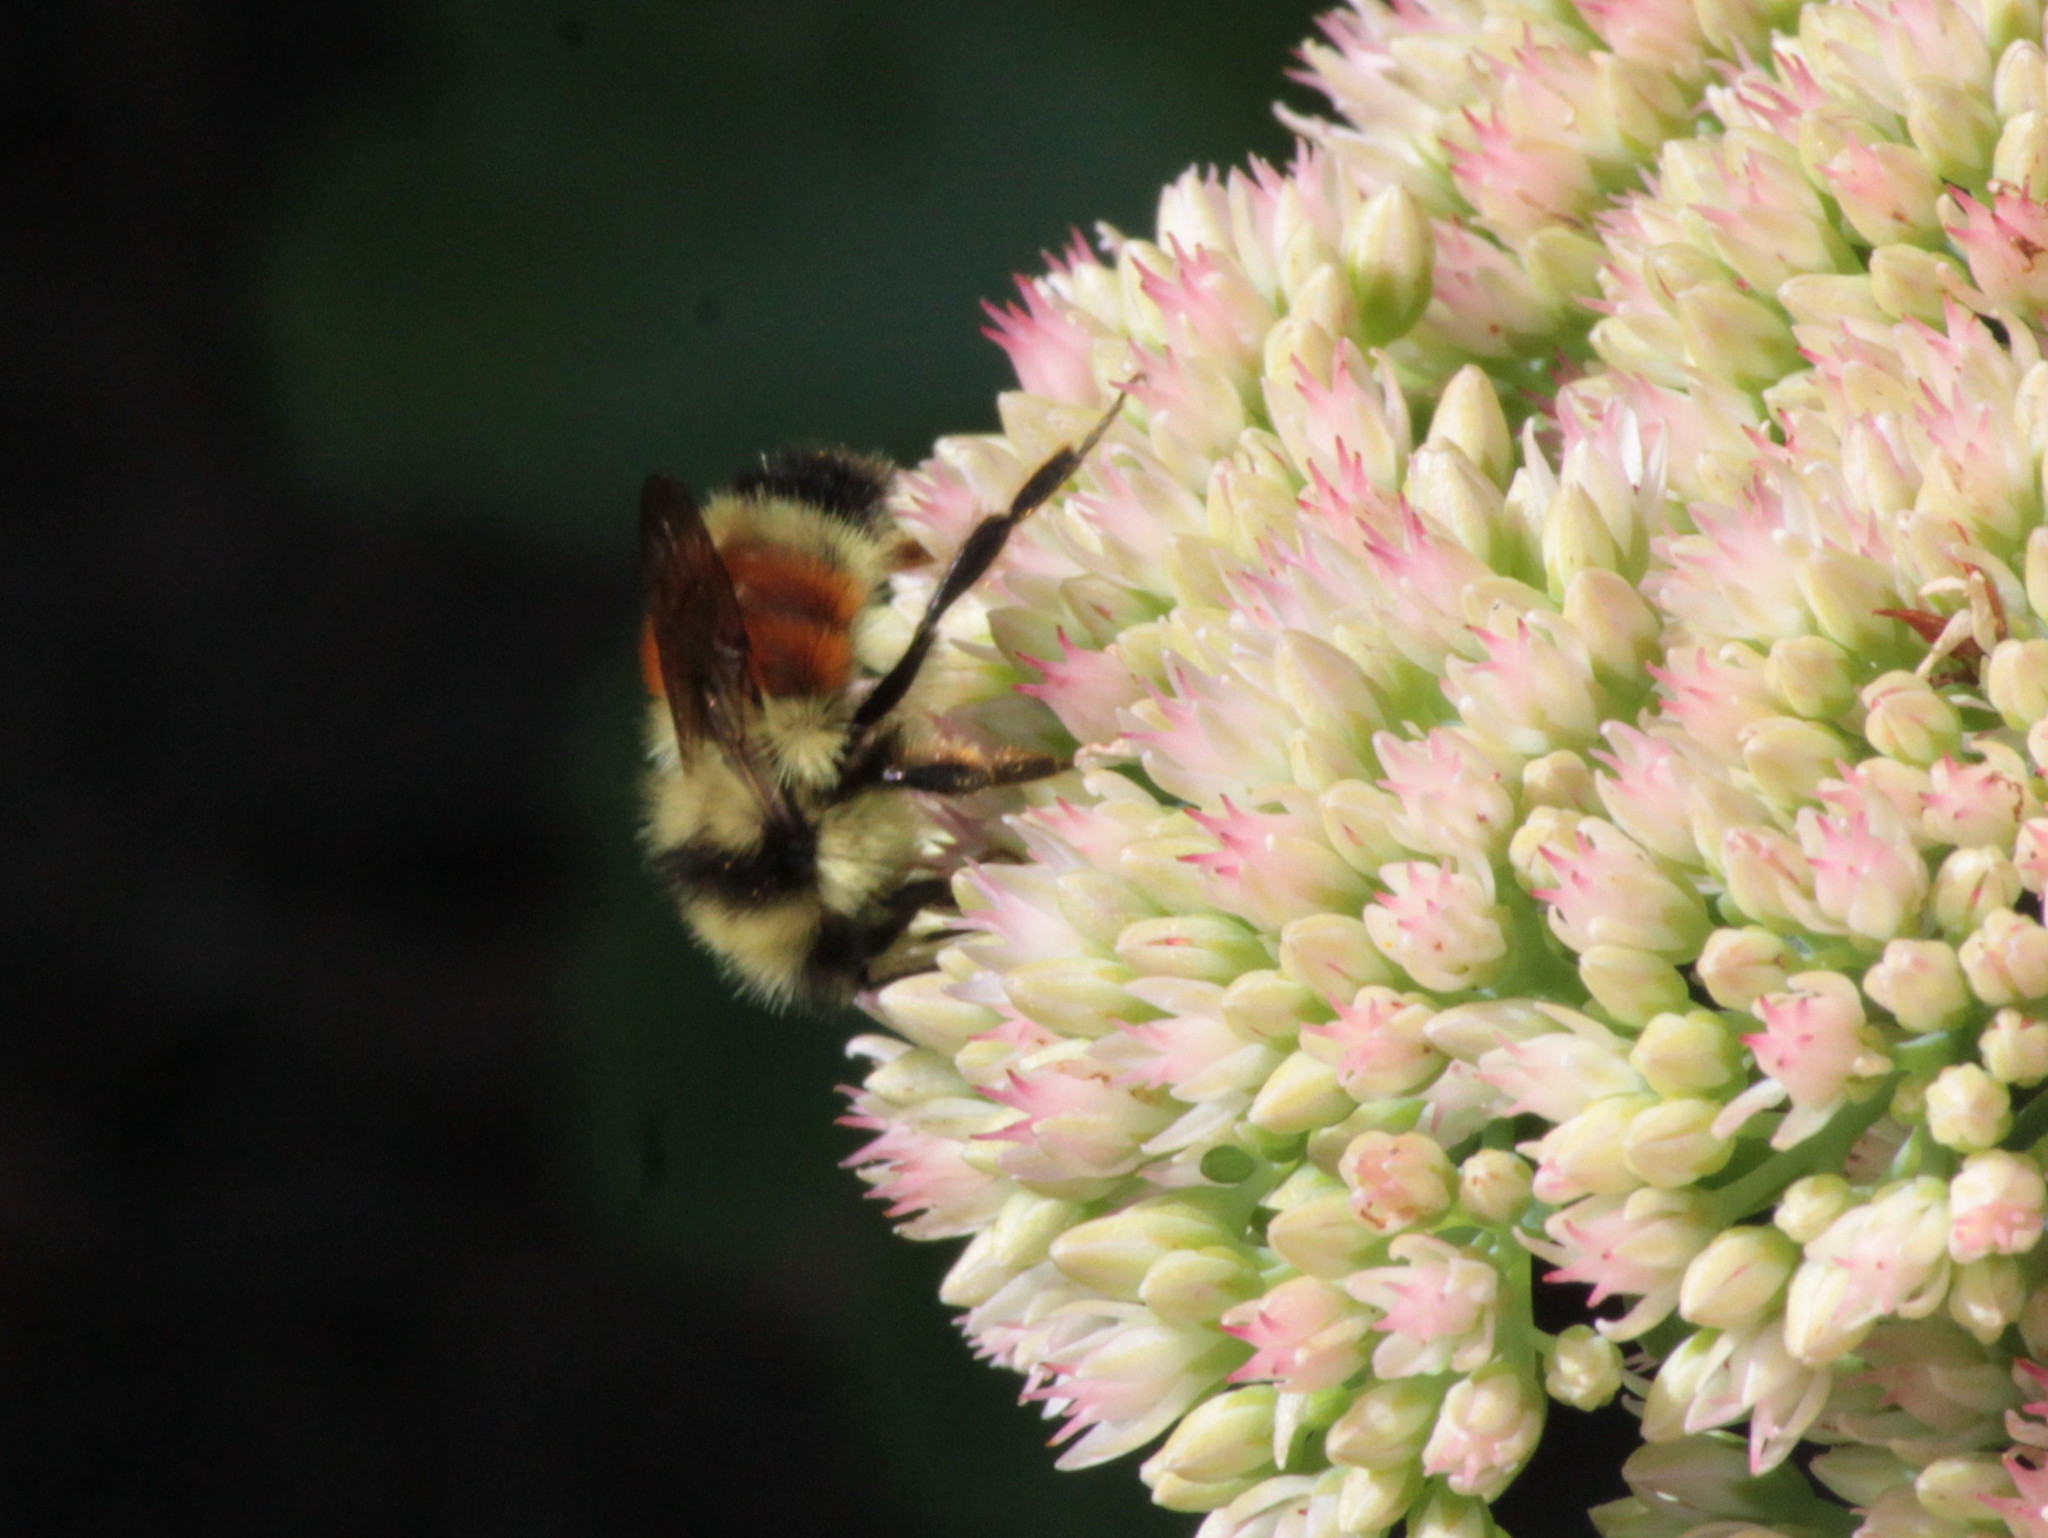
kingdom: Animalia
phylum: Arthropoda
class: Insecta
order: Hymenoptera
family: Apidae
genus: Bombus
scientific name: Bombus ternarius
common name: Tri-colored bumble bee
